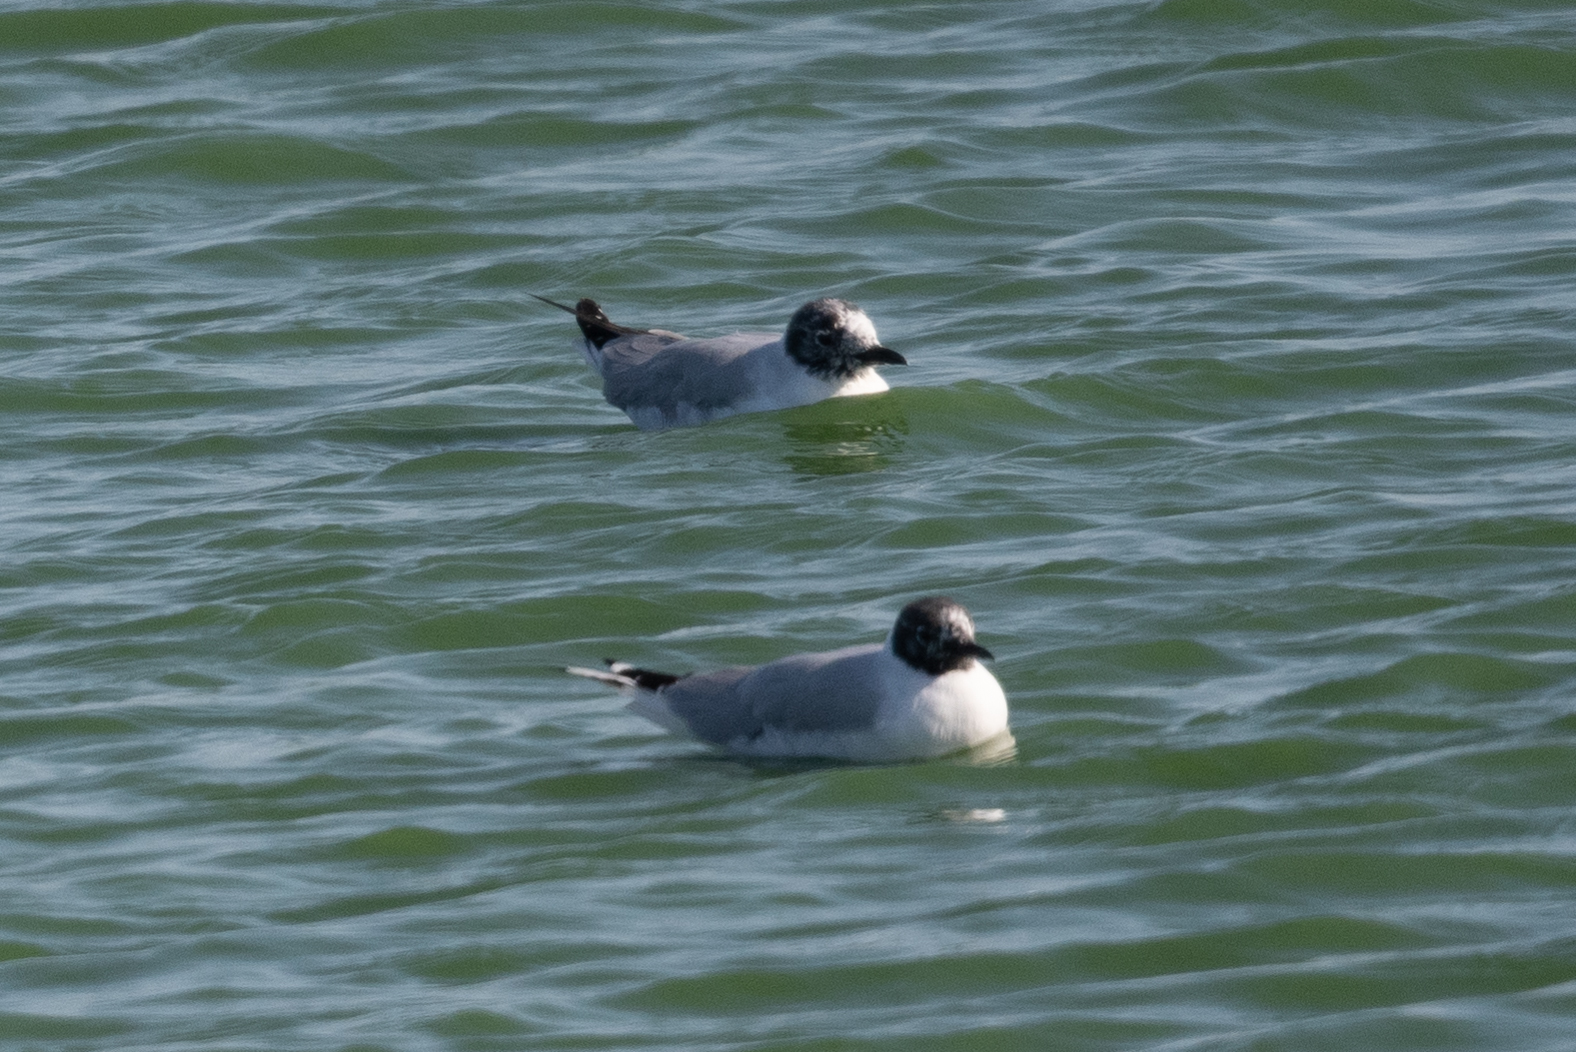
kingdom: Animalia
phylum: Chordata
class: Aves
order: Charadriiformes
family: Laridae
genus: Chroicocephalus
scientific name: Chroicocephalus philadelphia
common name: Bonaparte's gull
